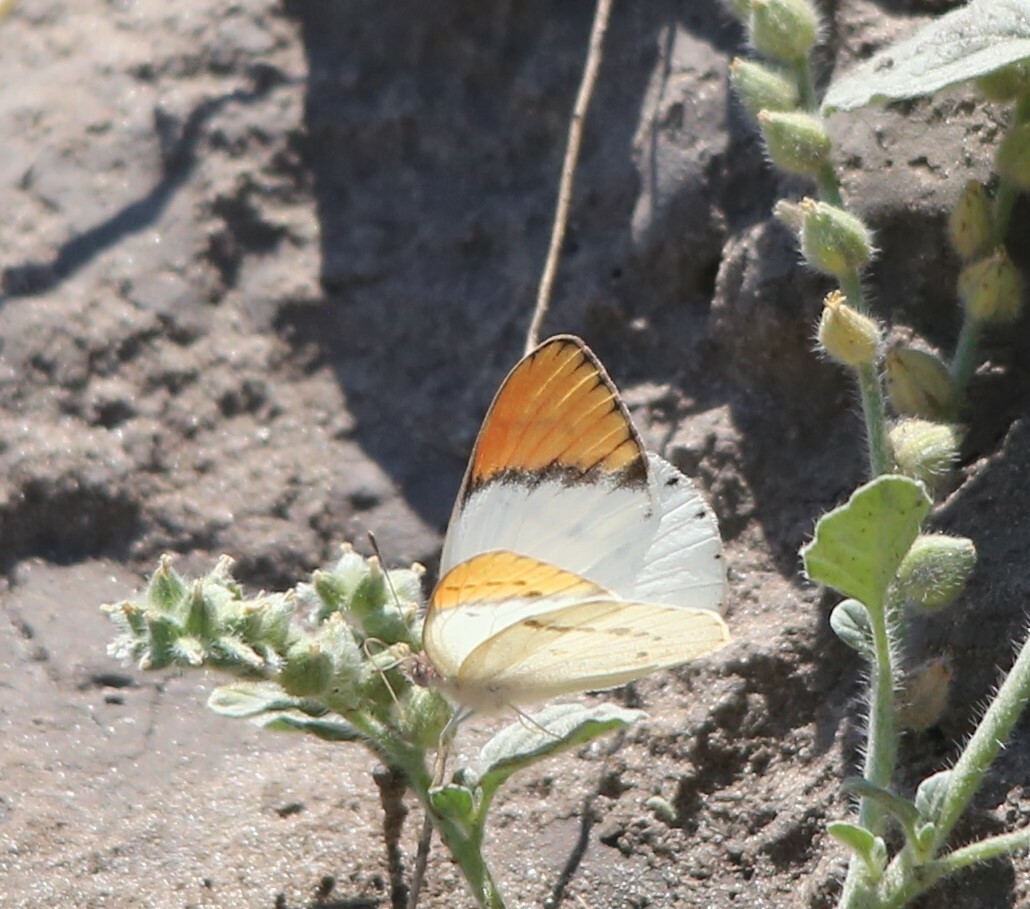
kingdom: Animalia
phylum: Arthropoda
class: Insecta
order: Lepidoptera
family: Pieridae
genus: Colotis
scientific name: Colotis annae
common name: Scarlet tip
